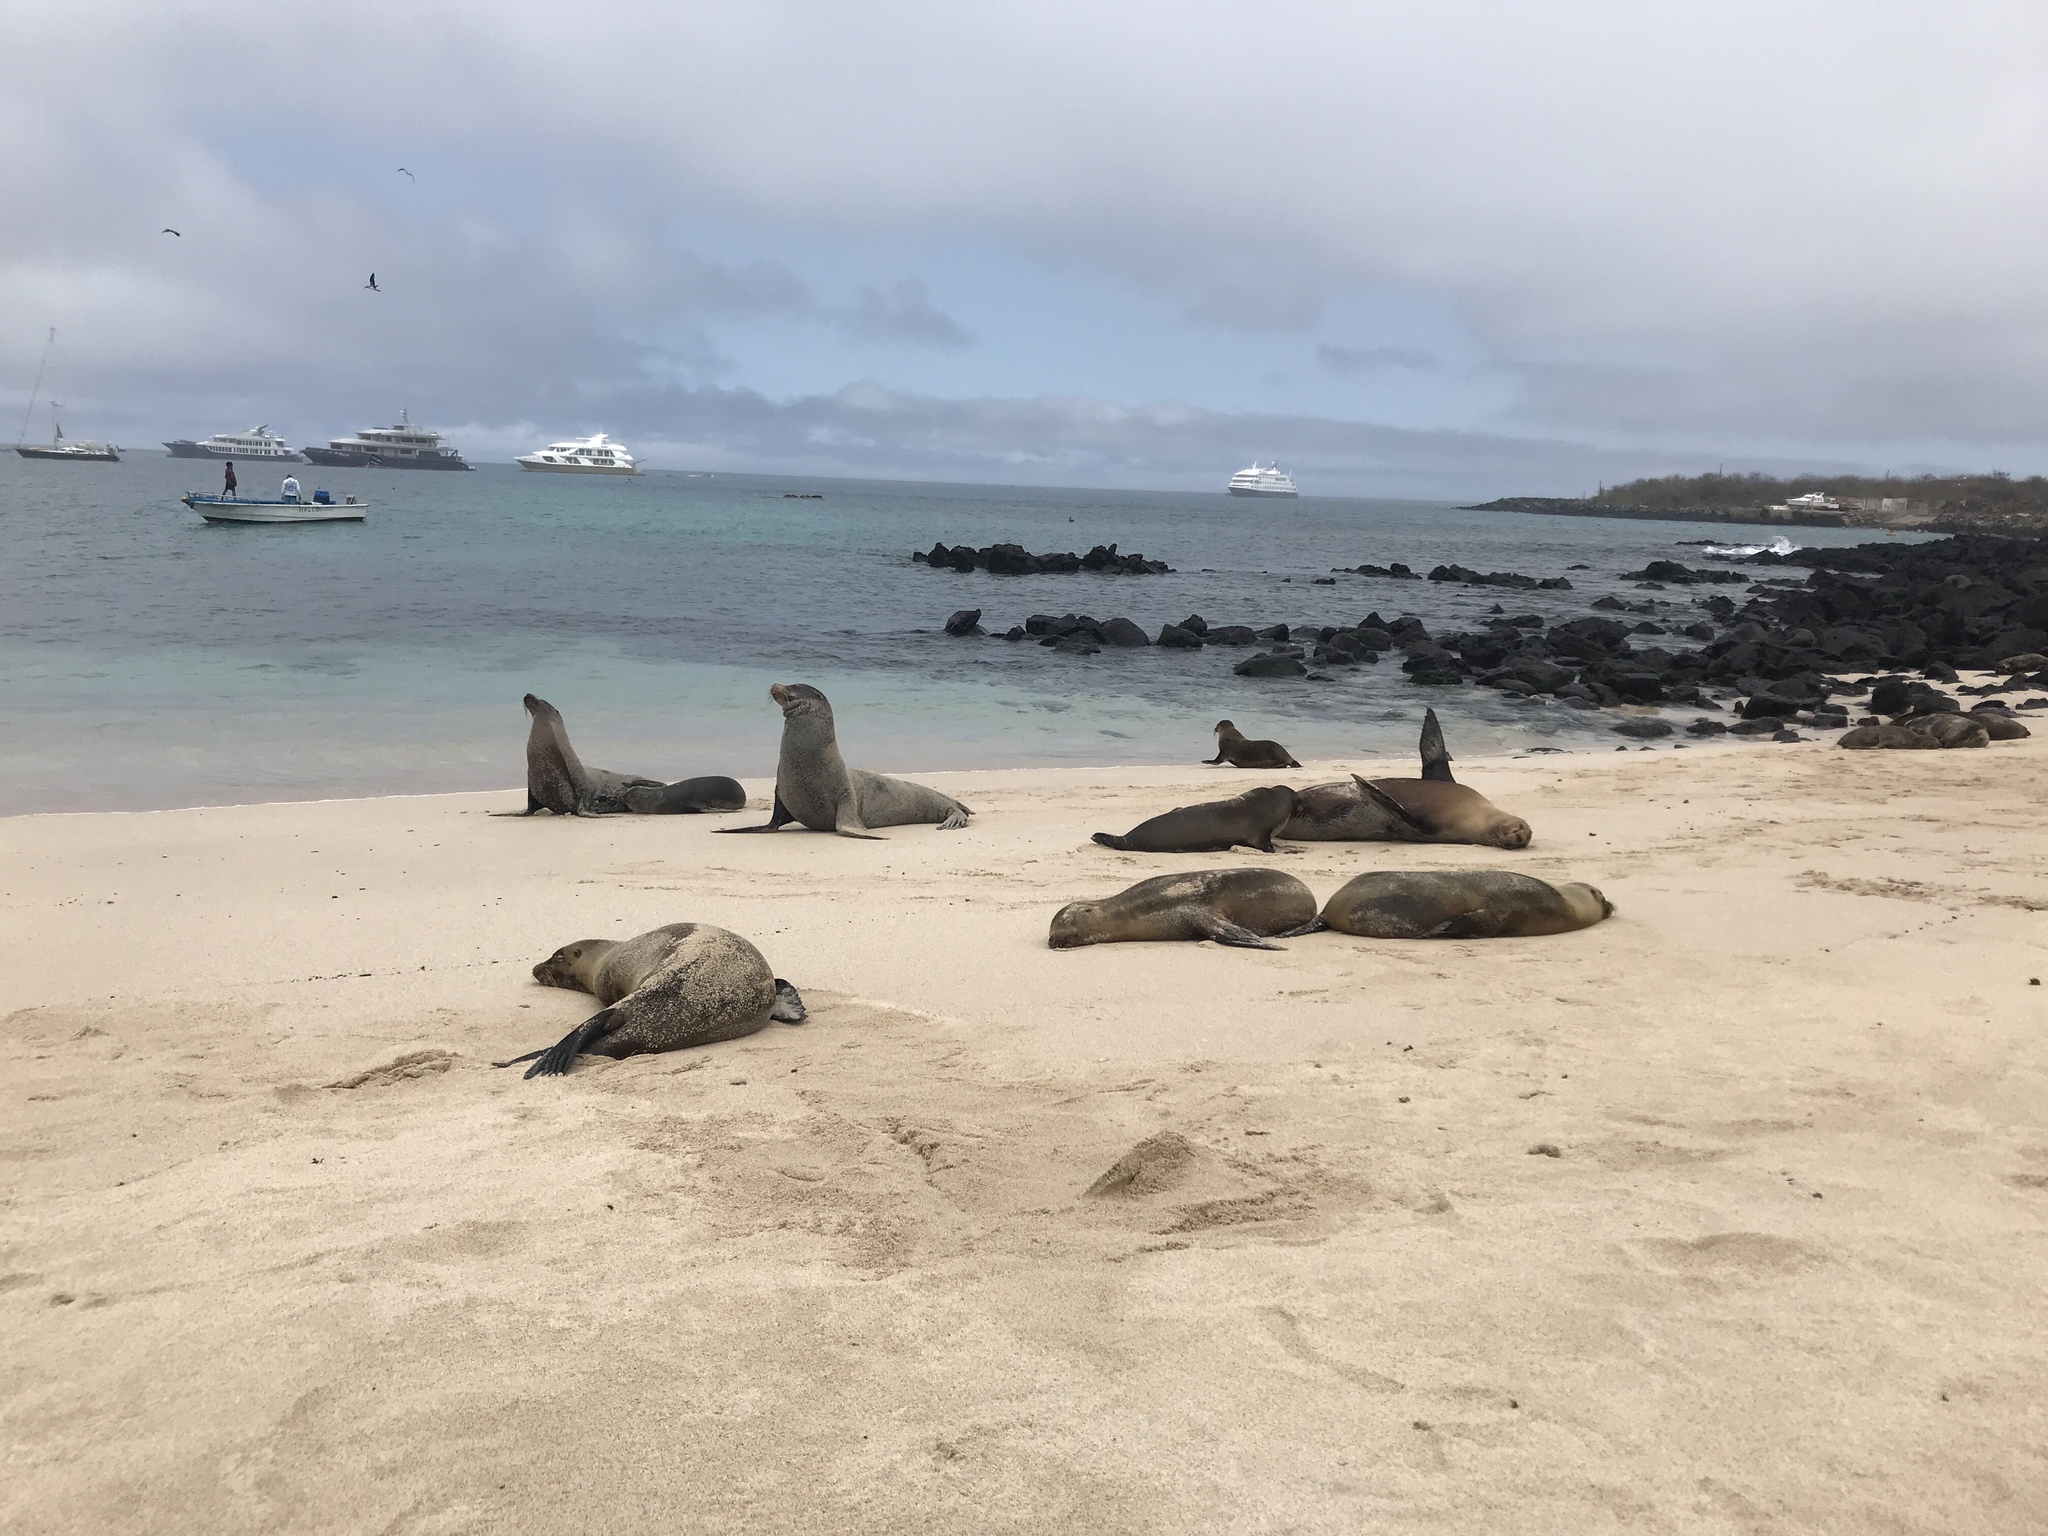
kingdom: Animalia
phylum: Chordata
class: Mammalia
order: Carnivora
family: Otariidae
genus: Zalophus
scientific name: Zalophus wollebaeki
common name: Galapagos sea lion
